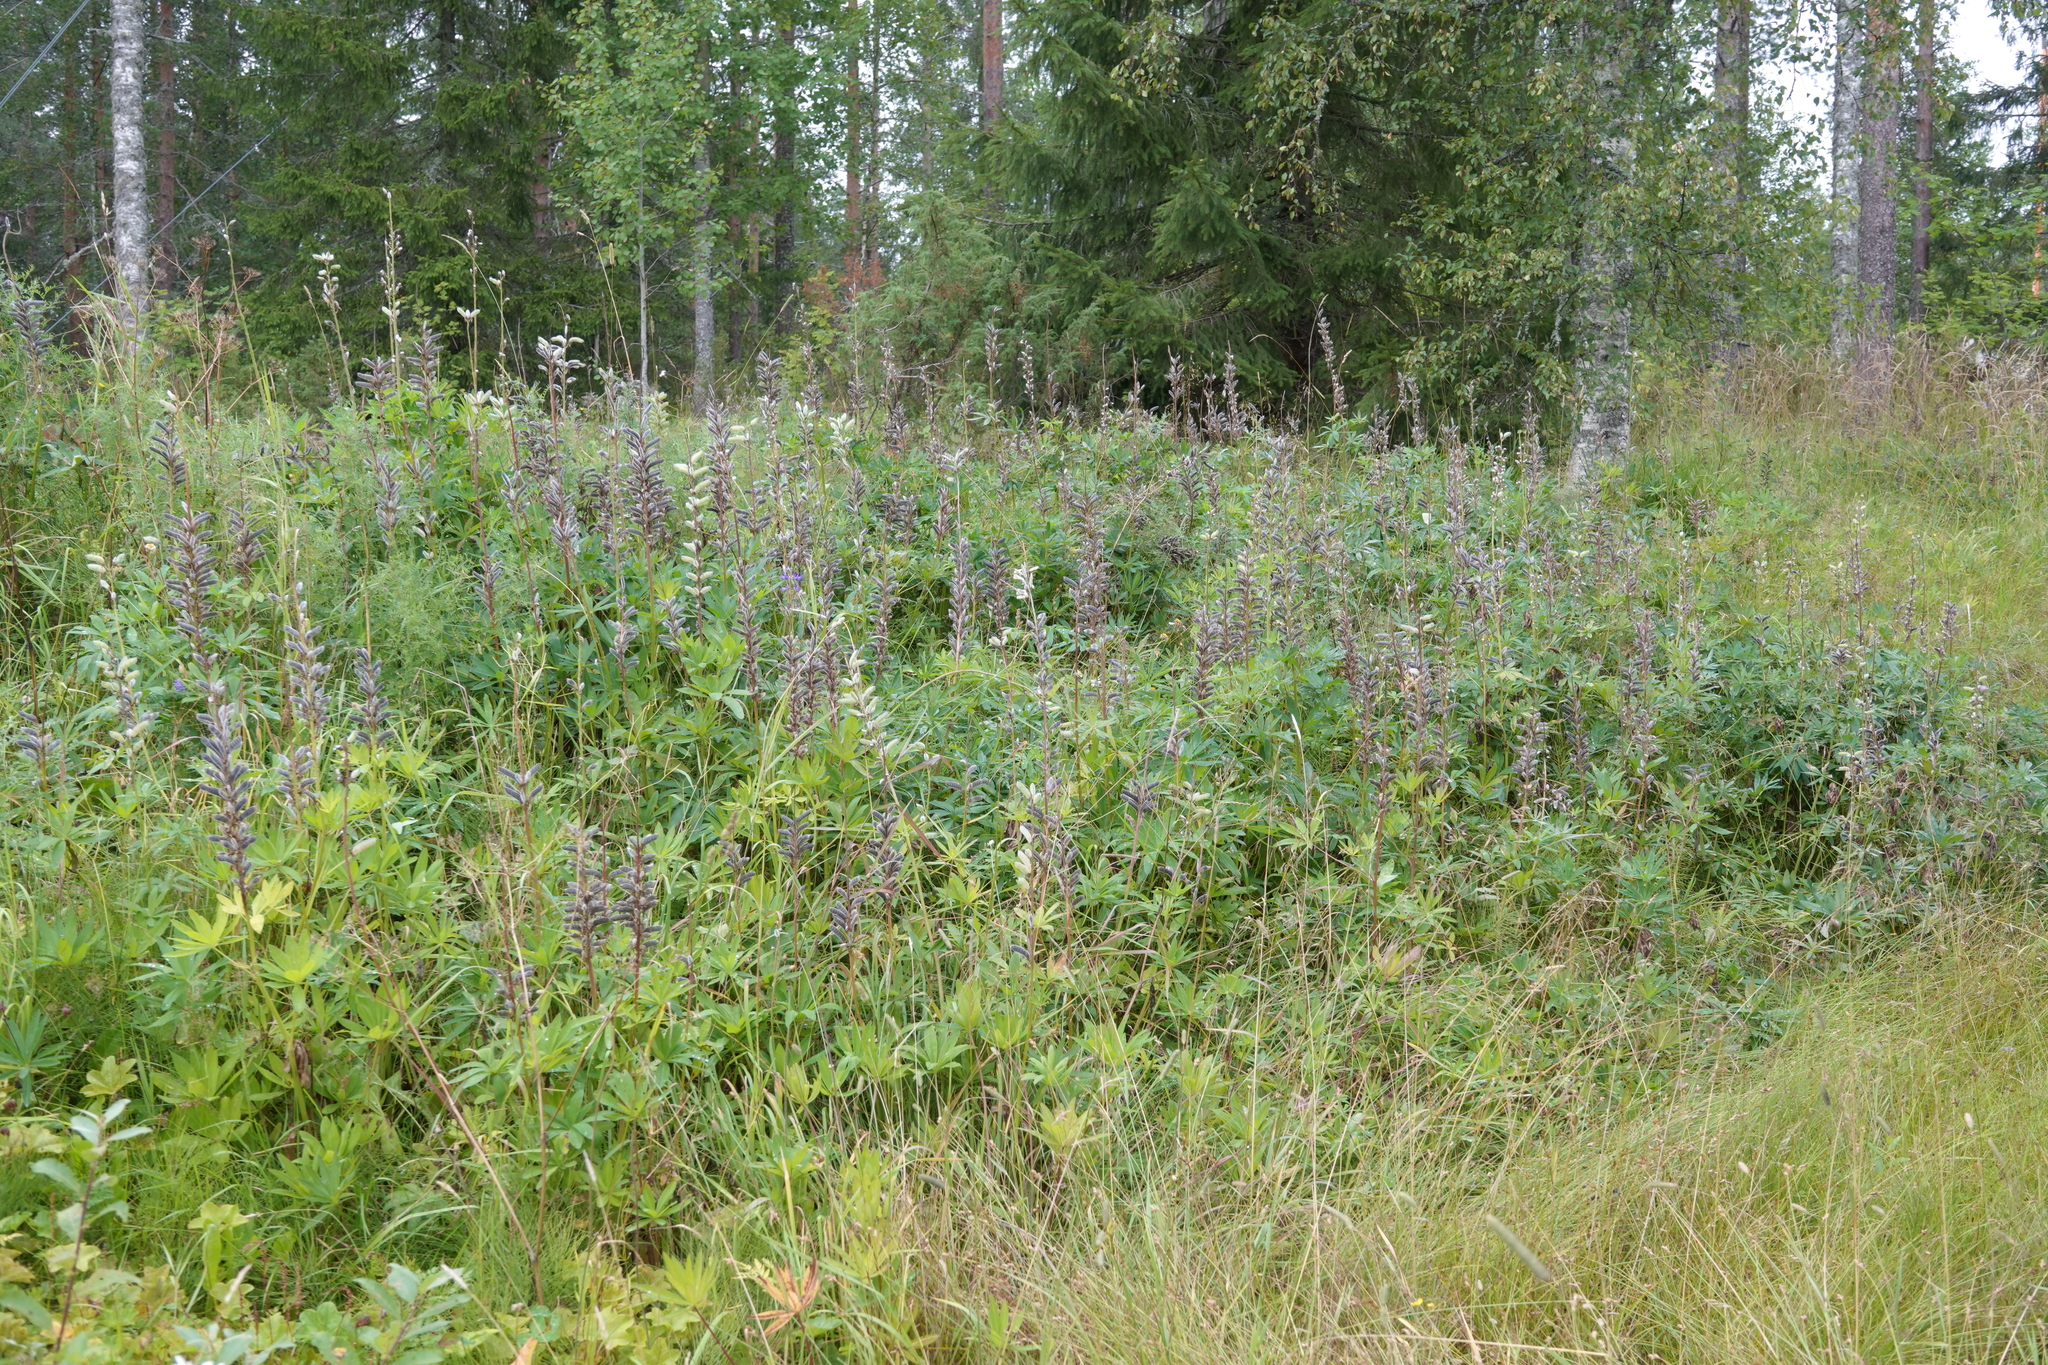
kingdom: Plantae
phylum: Tracheophyta
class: Magnoliopsida
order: Fabales
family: Fabaceae
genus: Lupinus
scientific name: Lupinus polyphyllus
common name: Garden lupin
